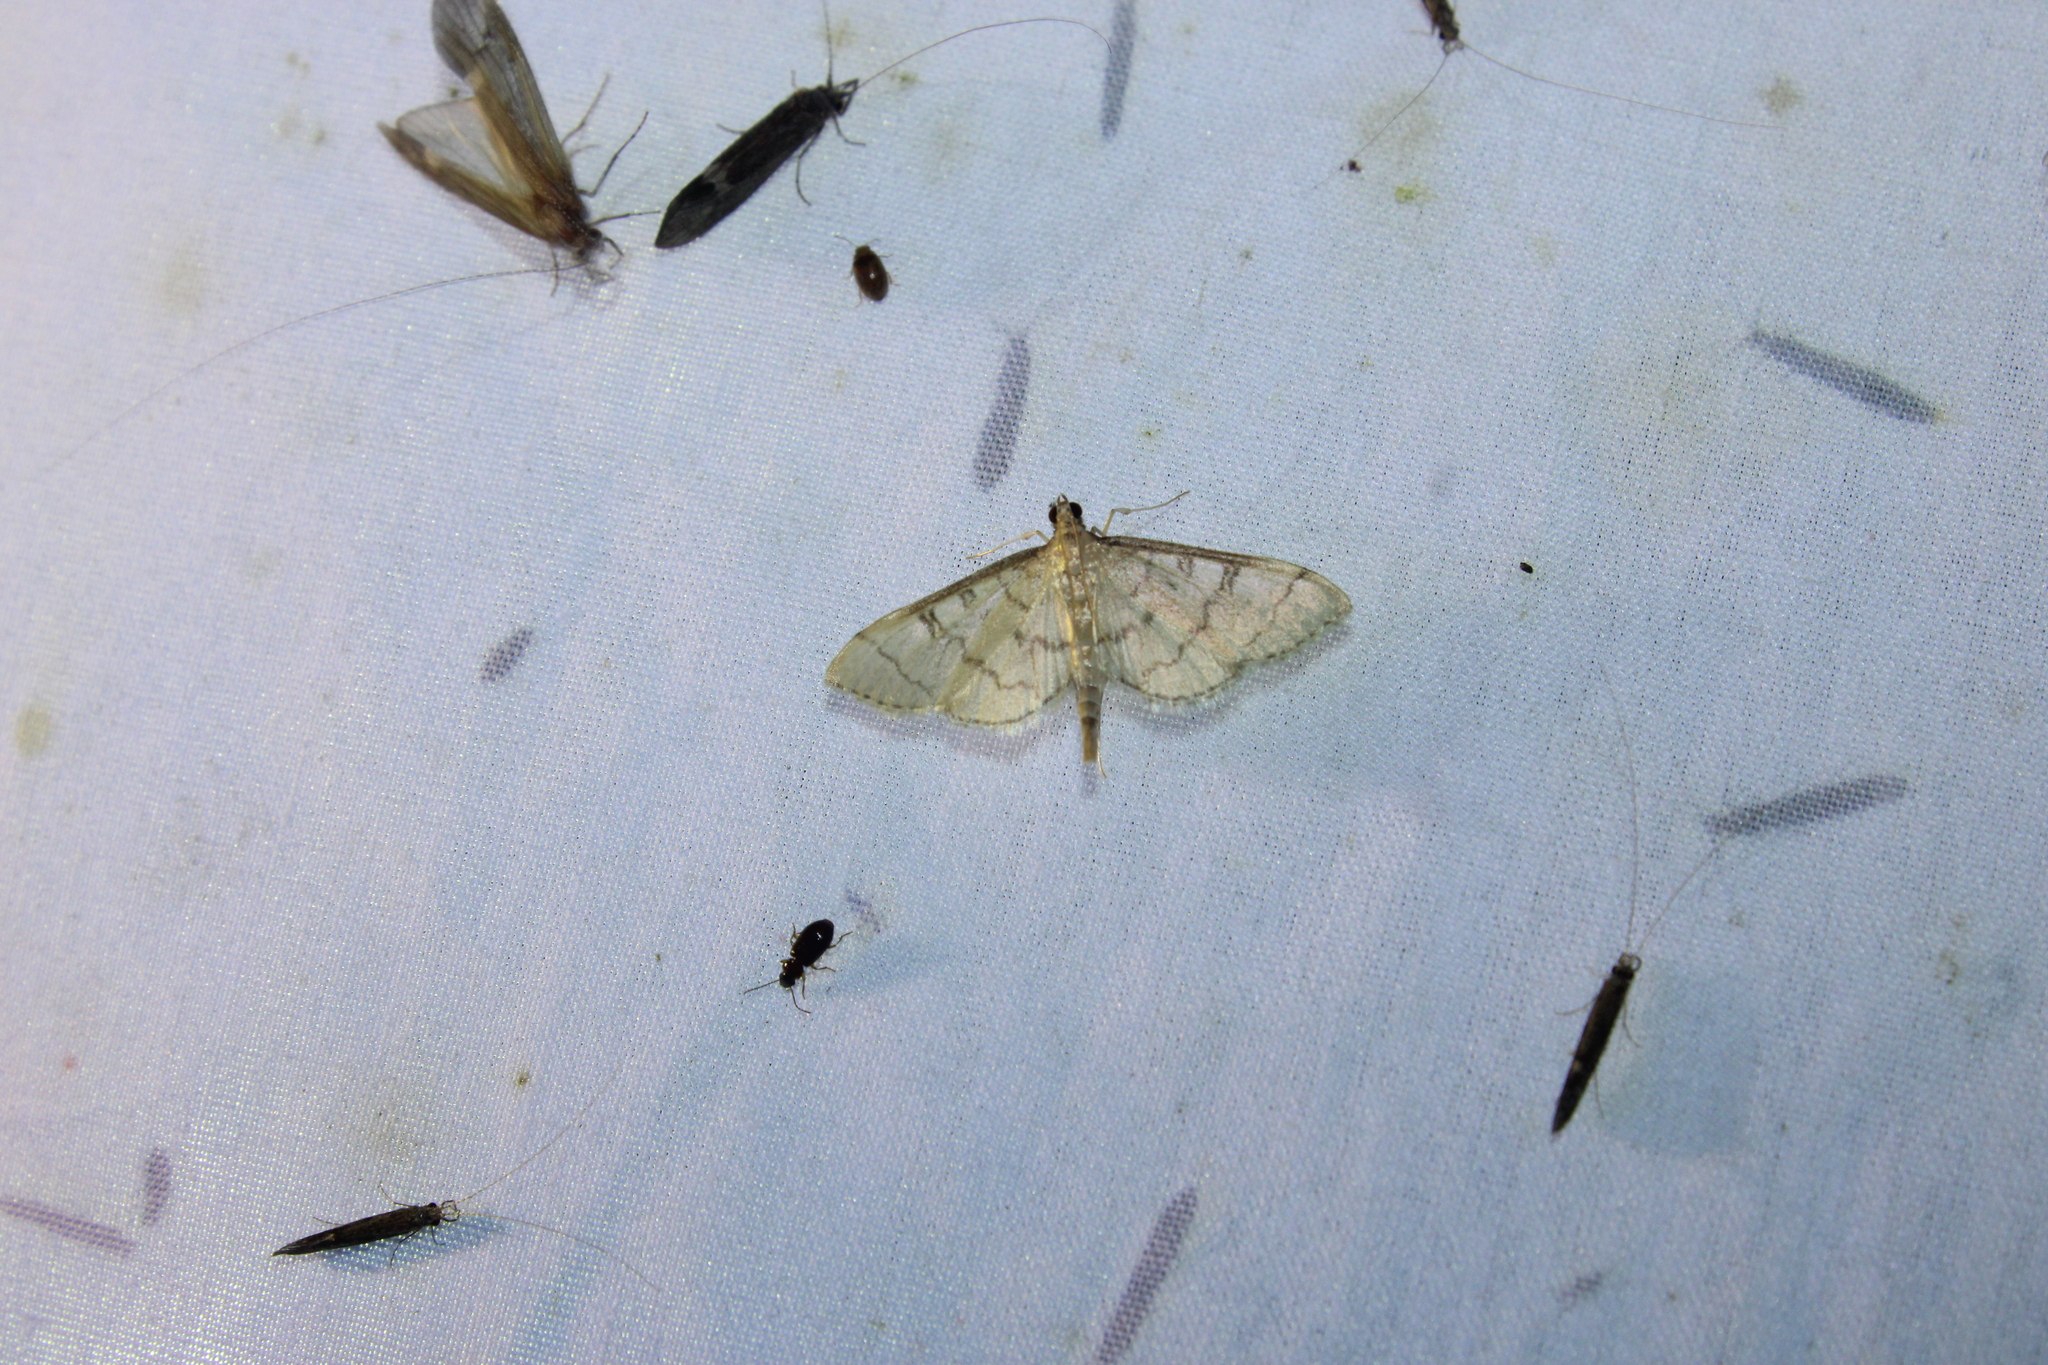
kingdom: Animalia
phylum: Arthropoda
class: Insecta
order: Lepidoptera
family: Crambidae
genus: Lamprosema
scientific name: Lamprosema Blepharomastix ranalis
